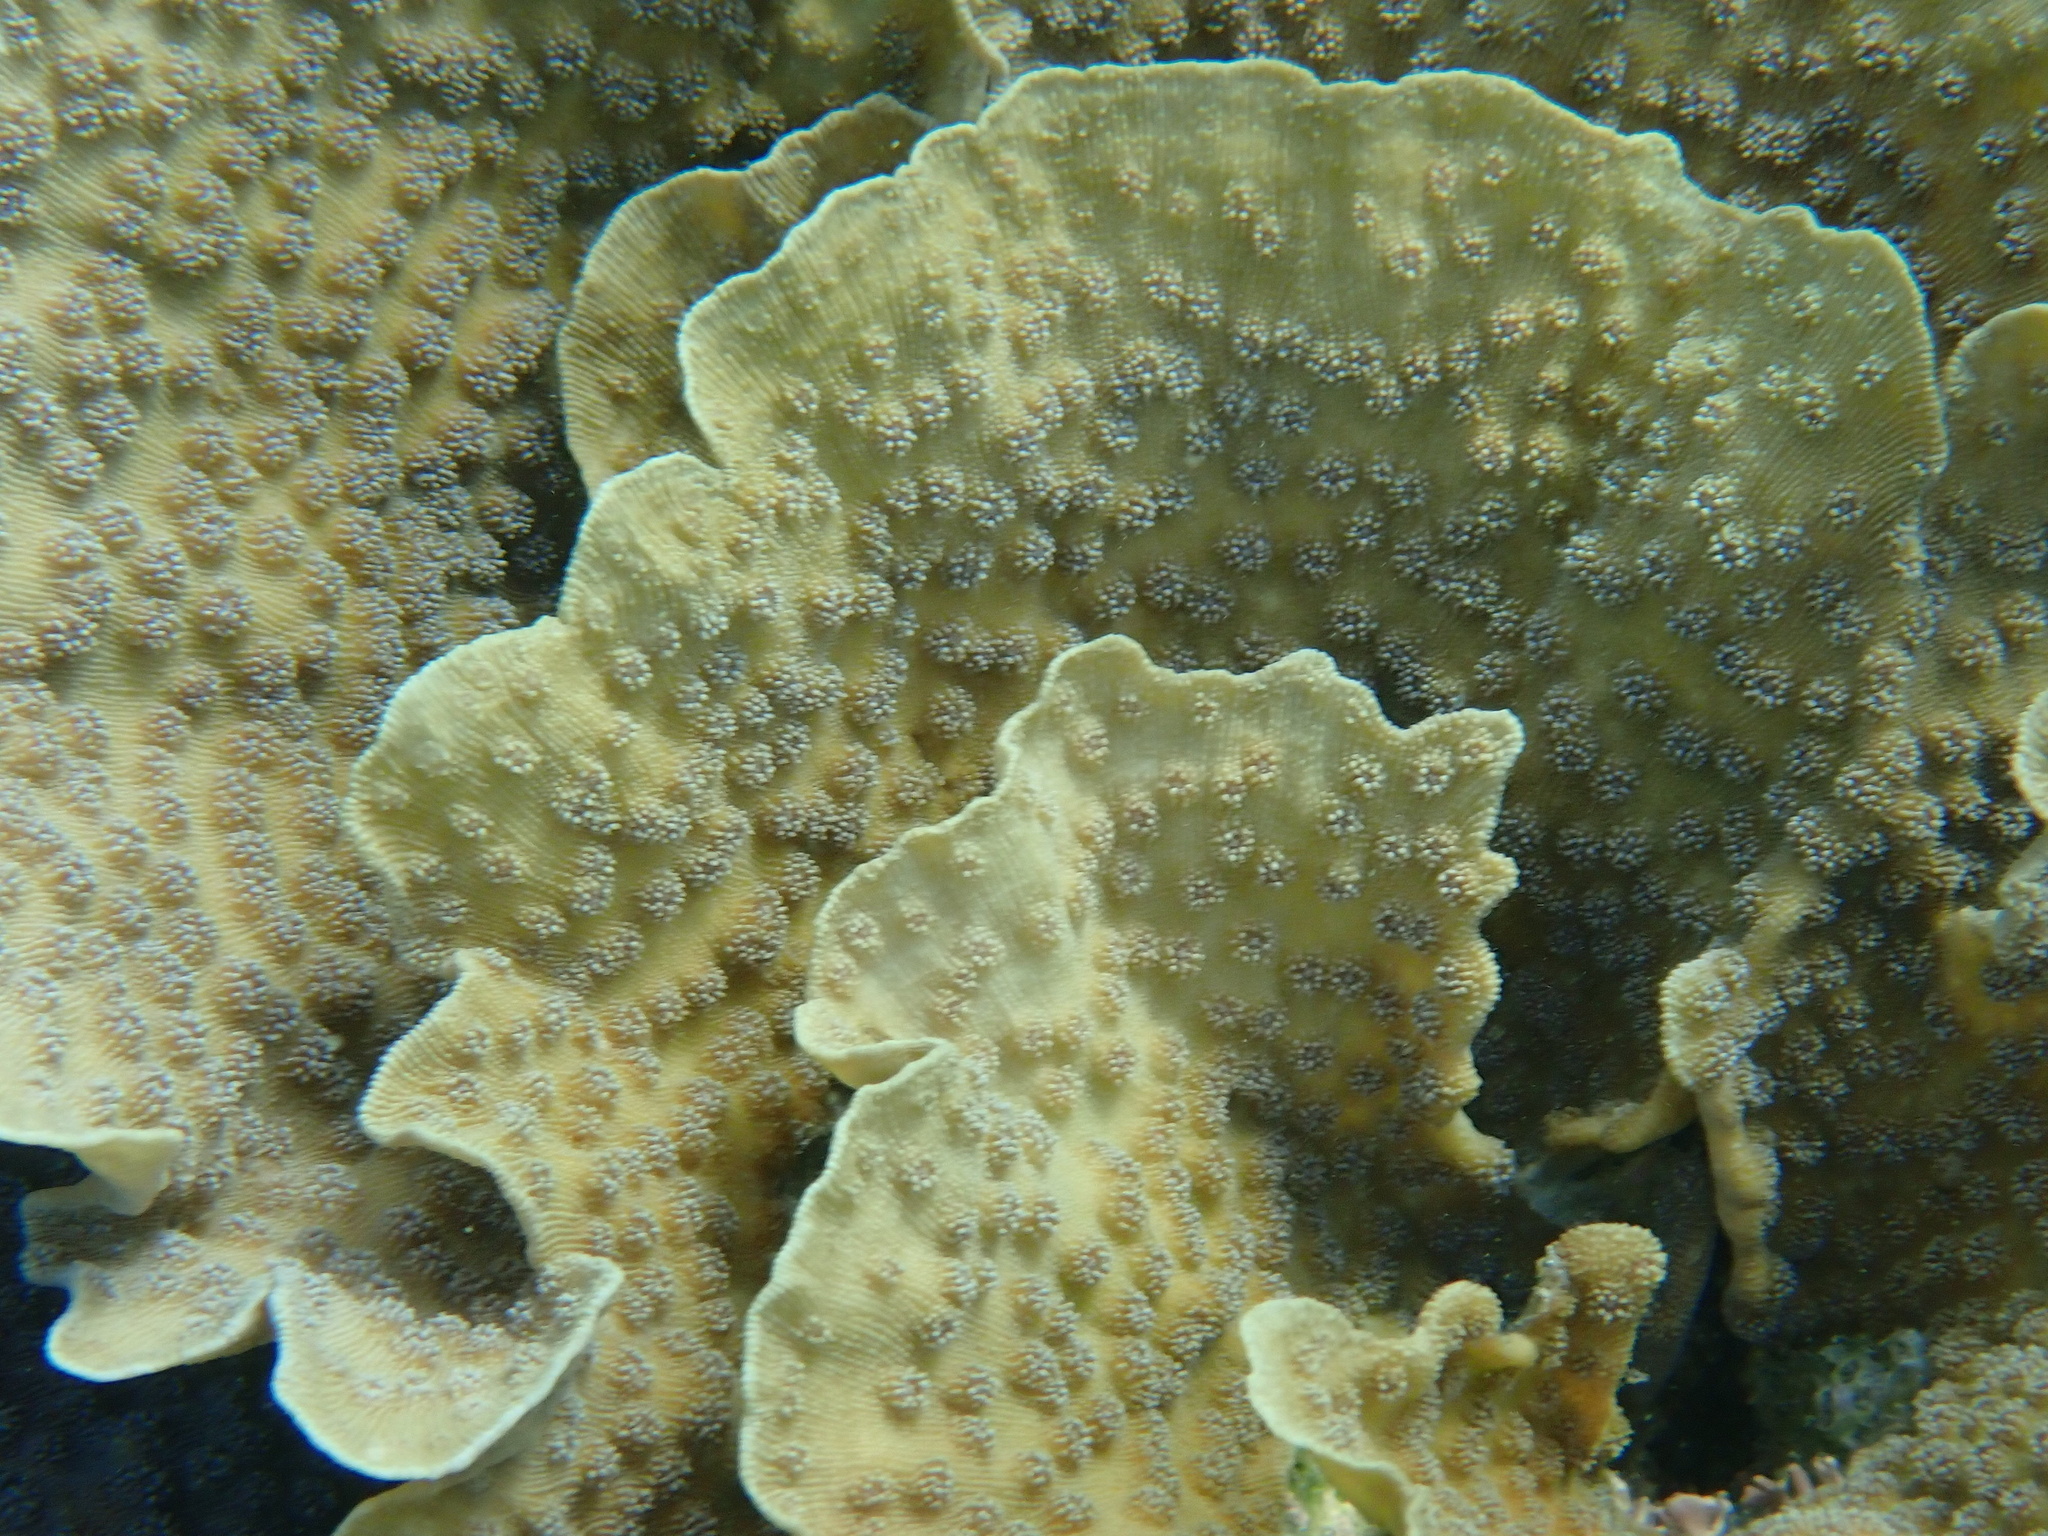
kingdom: Animalia
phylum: Cnidaria
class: Anthozoa
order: Scleractinia
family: Merulinidae
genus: Echinopora
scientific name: Echinopora lamellosa
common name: Hedgehog coral
